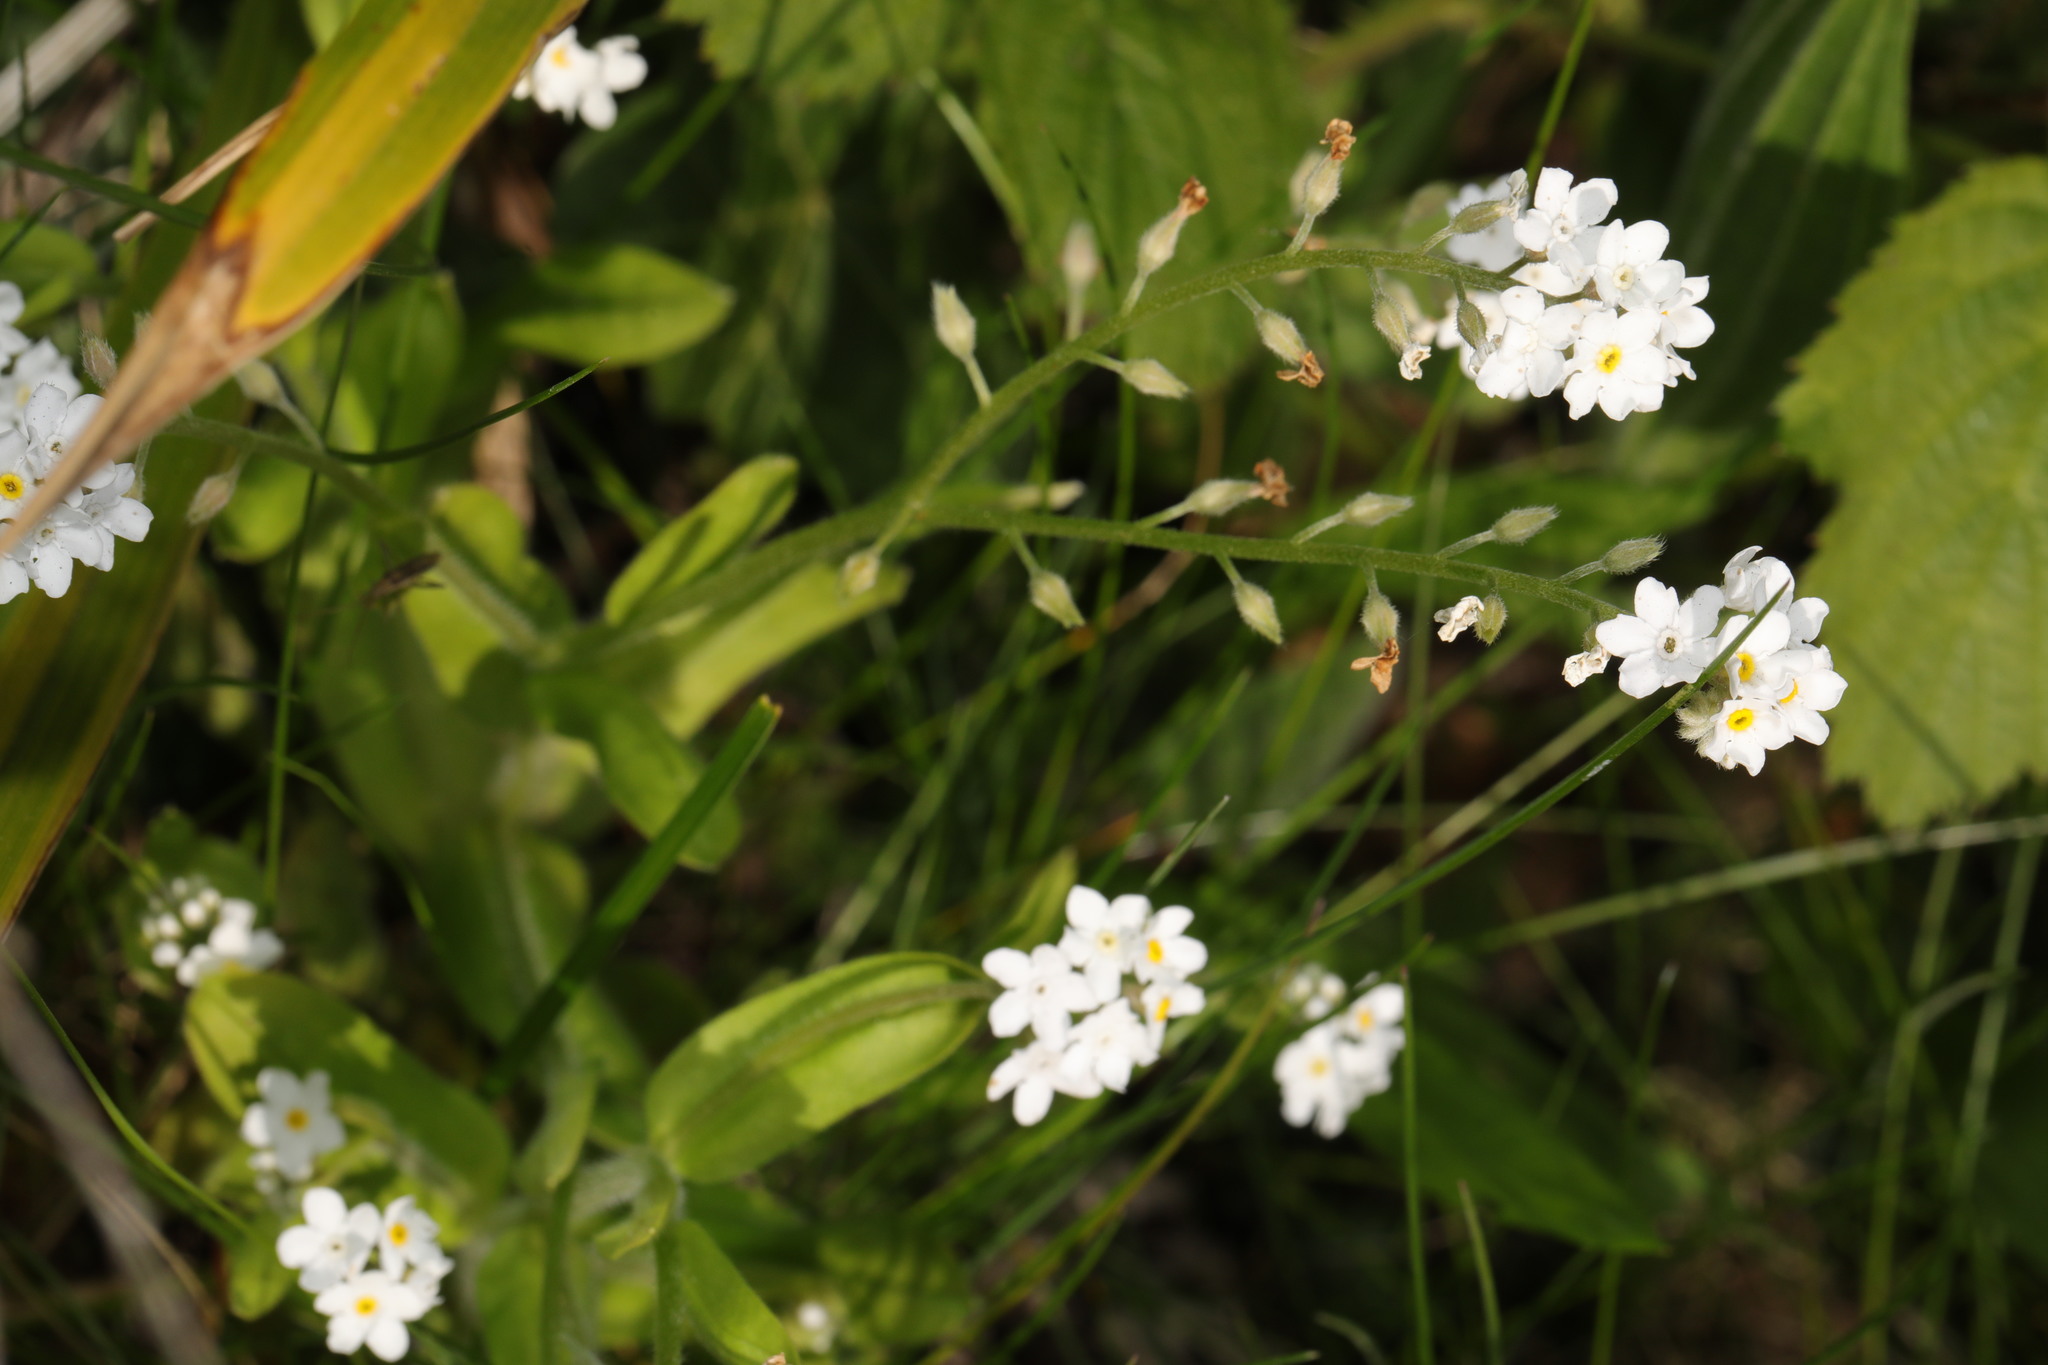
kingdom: Plantae
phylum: Tracheophyta
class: Magnoliopsida
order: Boraginales
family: Boraginaceae
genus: Myosotis
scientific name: Myosotis sylvatica
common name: Wood forget-me-not
